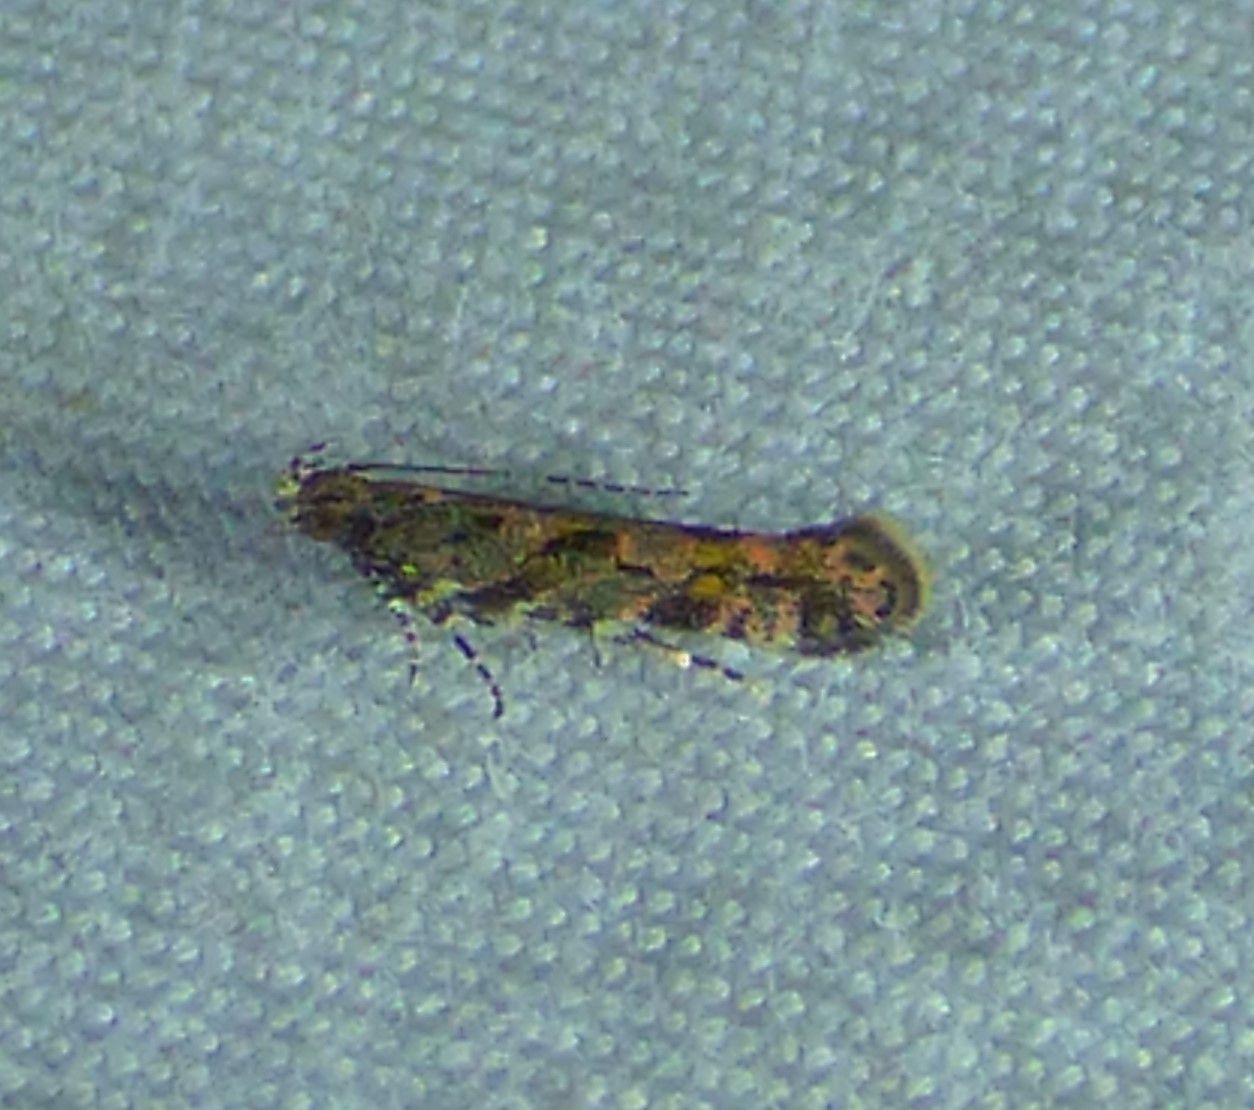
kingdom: Animalia
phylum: Arthropoda
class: Insecta
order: Lepidoptera
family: Gelechiidae
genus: Aristotelia
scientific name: Aristotelia rubidella
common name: Ruby aristotelia moth
